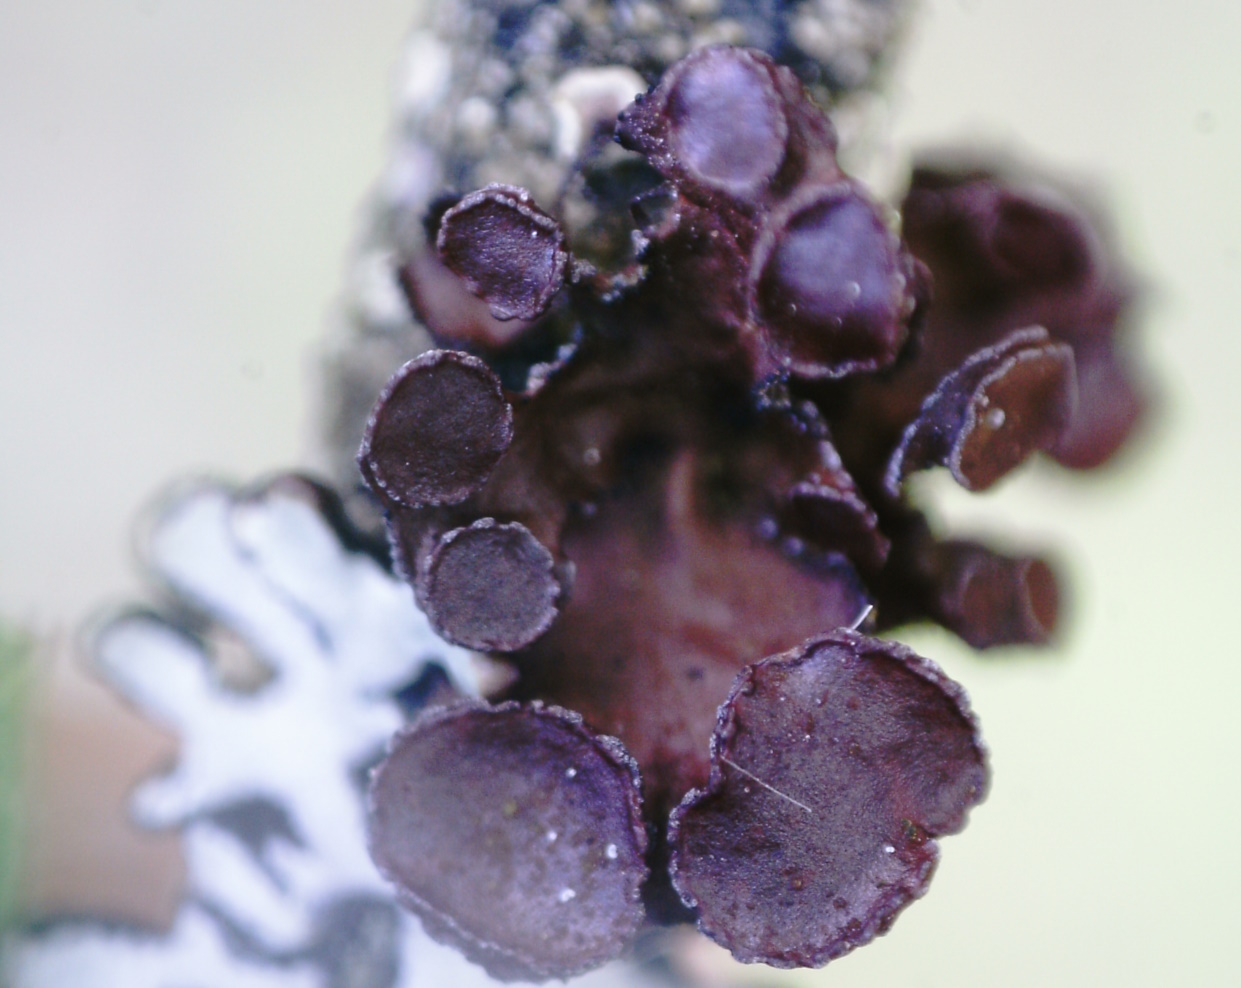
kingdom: Fungi
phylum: Ascomycota
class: Lecanoromycetes
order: Lecanorales
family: Parmeliaceae
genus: Cetraria
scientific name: Cetraria sepincola
